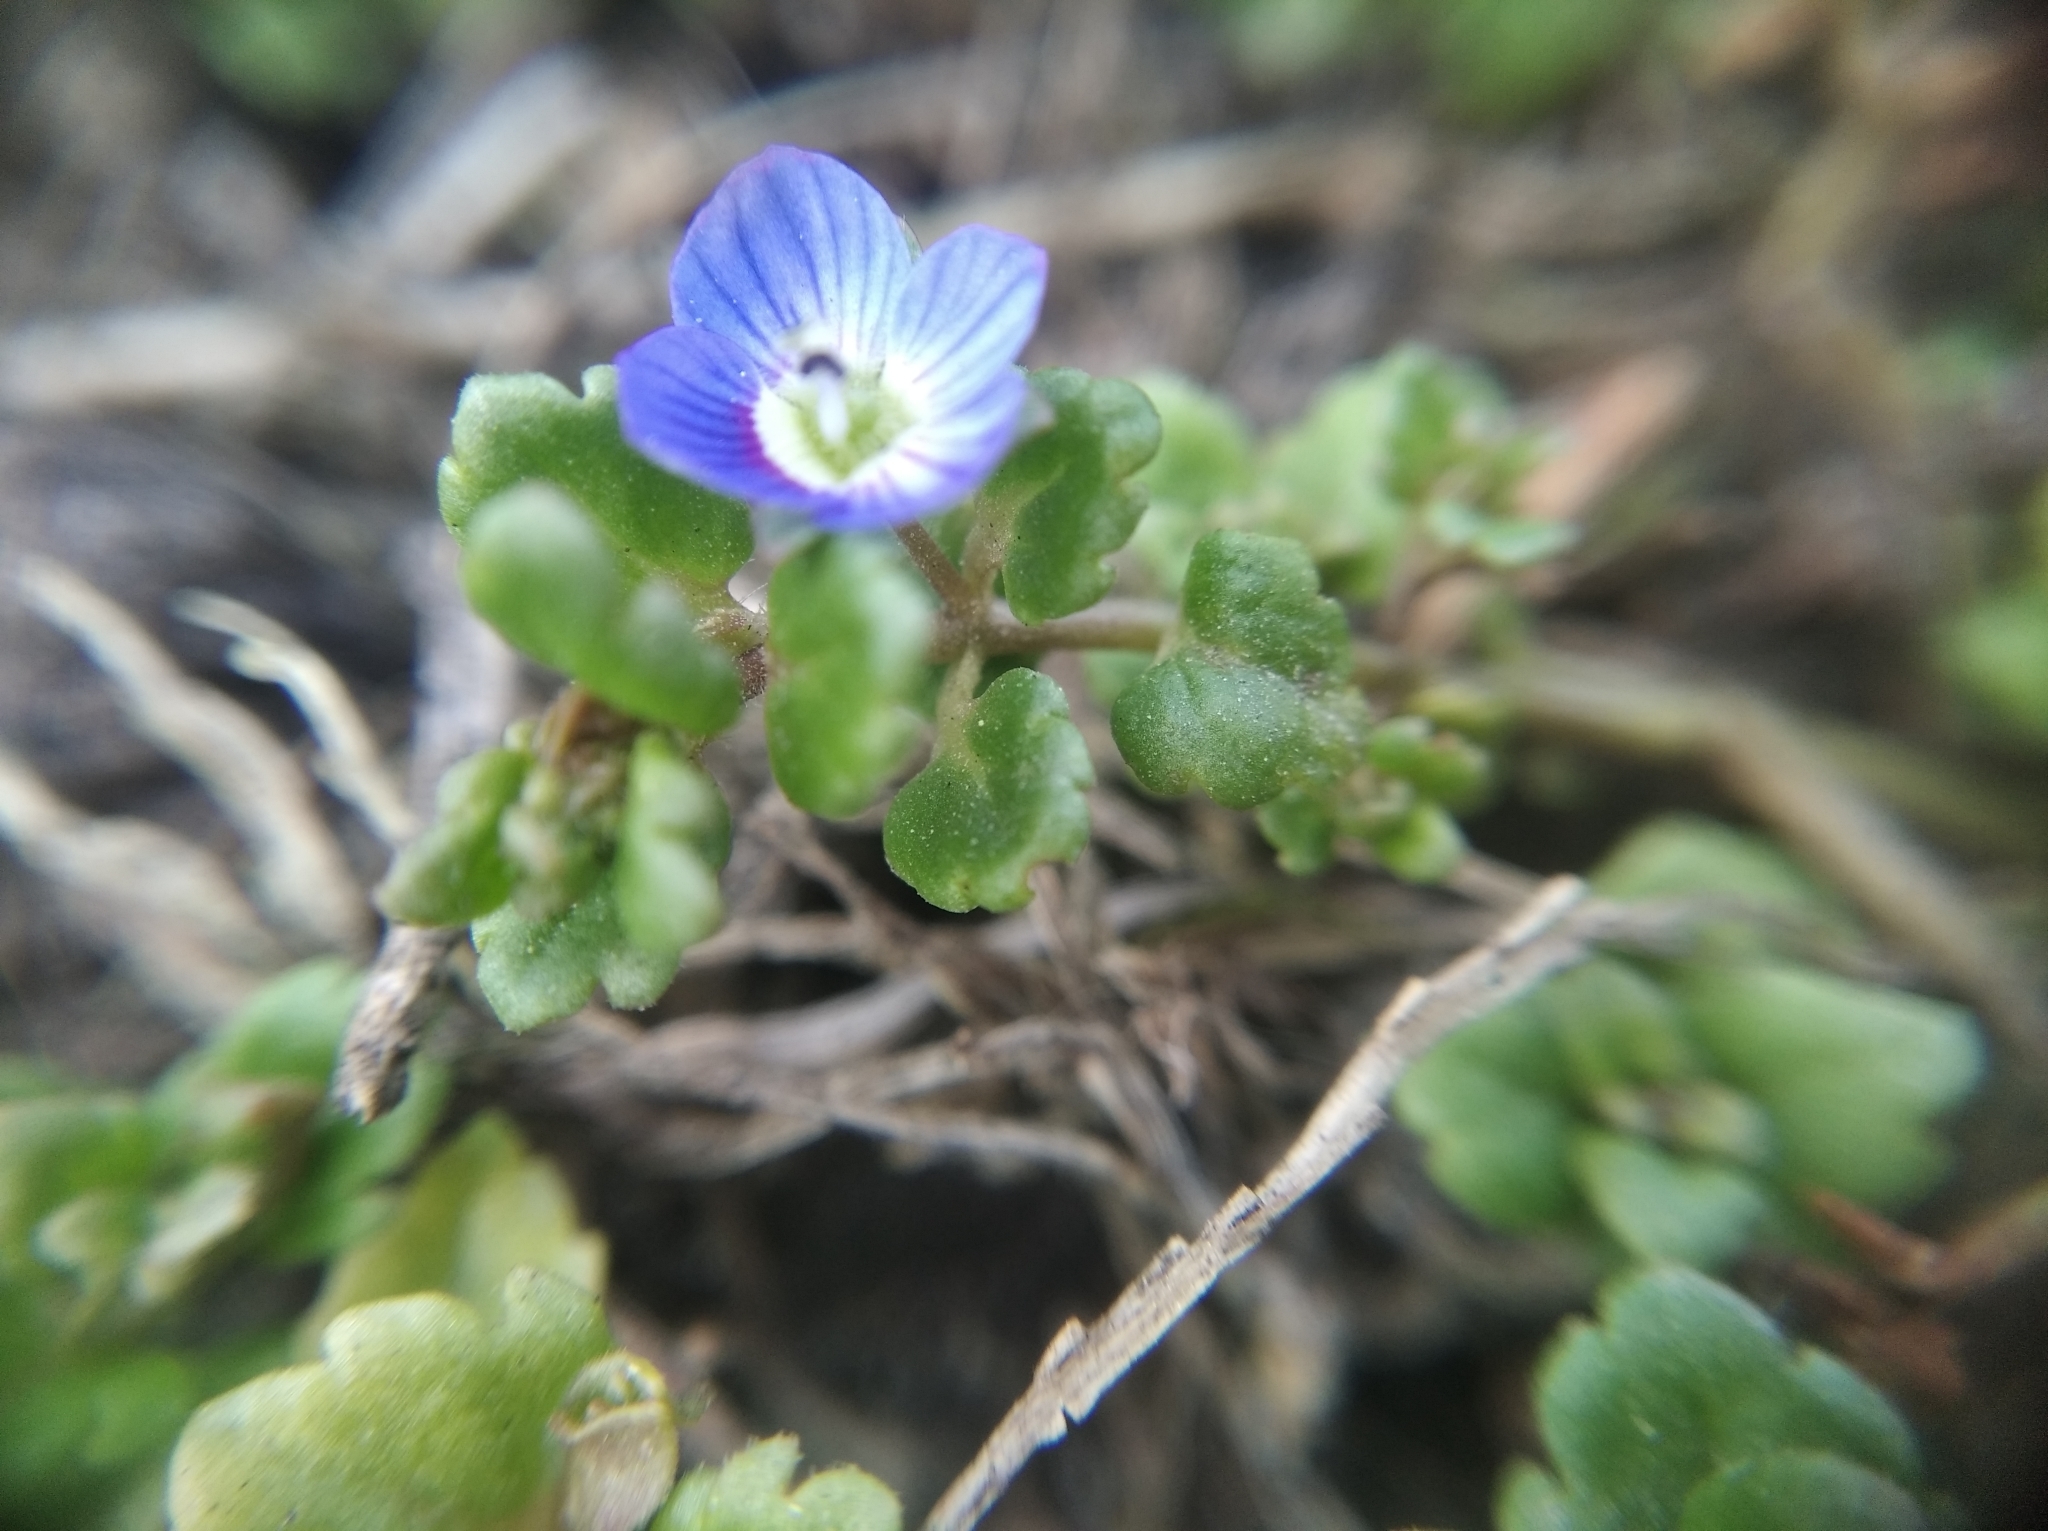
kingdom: Plantae
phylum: Tracheophyta
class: Magnoliopsida
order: Lamiales
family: Plantaginaceae
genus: Veronica
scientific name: Veronica polita
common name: Grey field-speedwell
